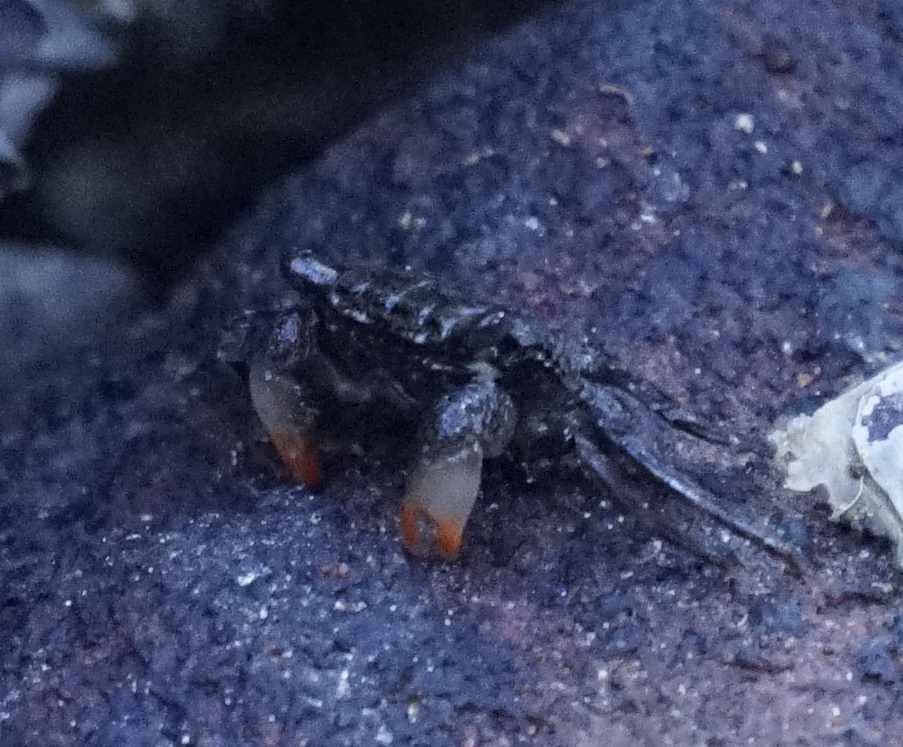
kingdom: Animalia
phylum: Arthropoda
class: Malacostraca
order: Decapoda
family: Sesarmidae
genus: Parasesarma
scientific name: Parasesarma erythodactylum
